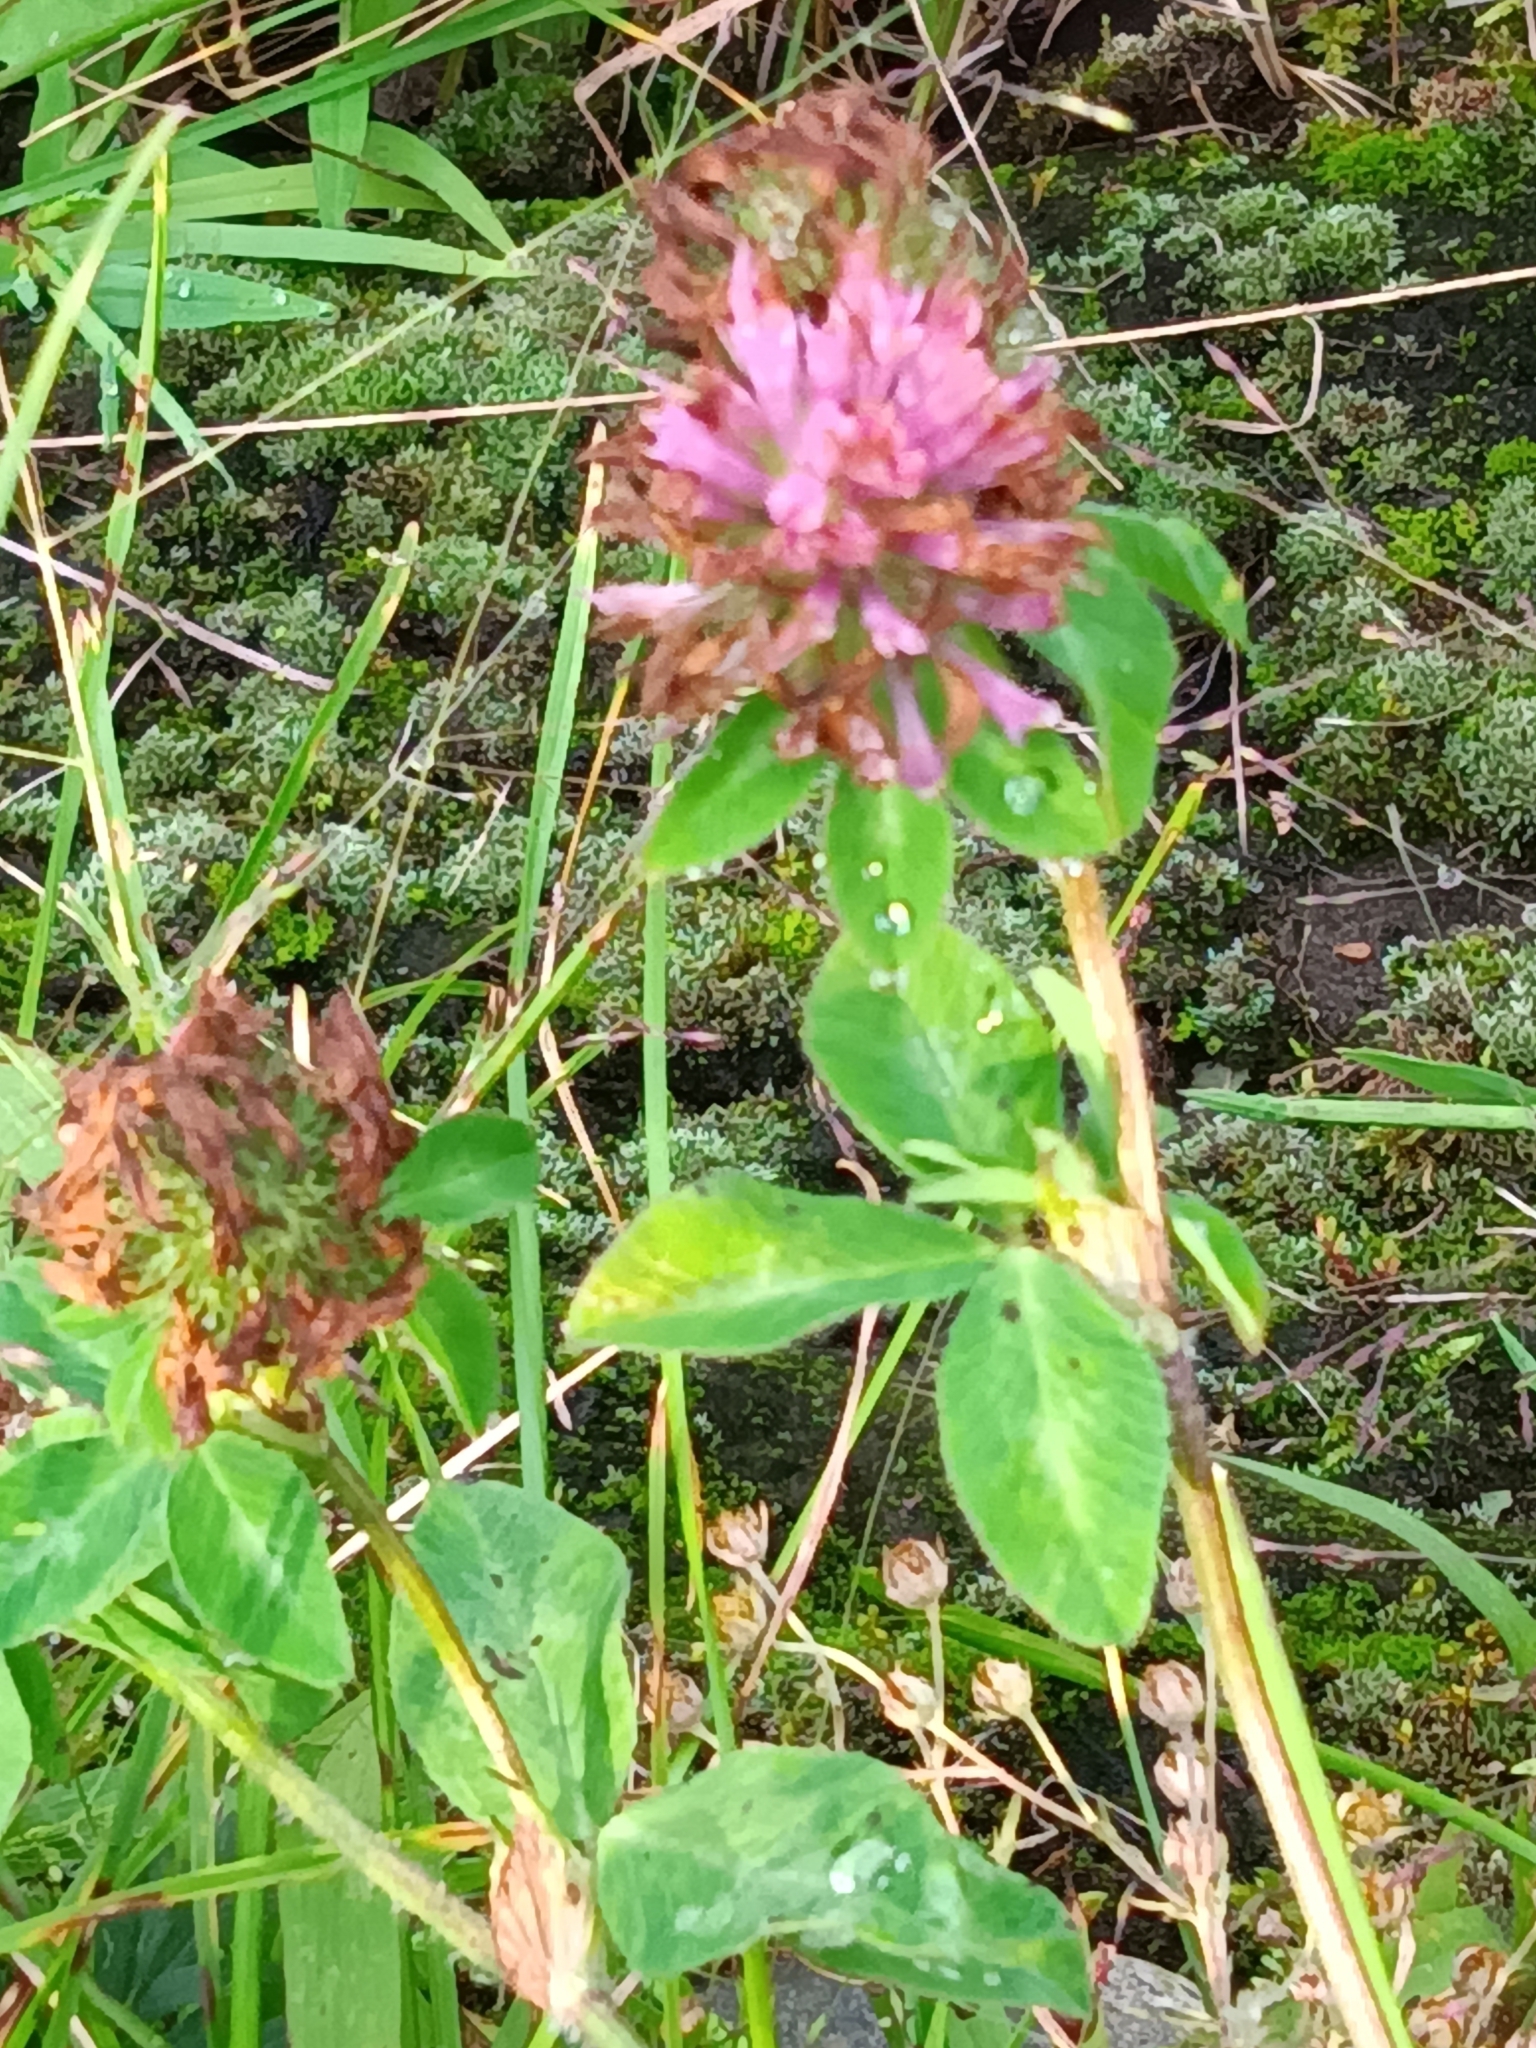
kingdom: Plantae
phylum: Tracheophyta
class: Magnoliopsida
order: Fabales
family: Fabaceae
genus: Trifolium
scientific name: Trifolium pratense
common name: Red clover
